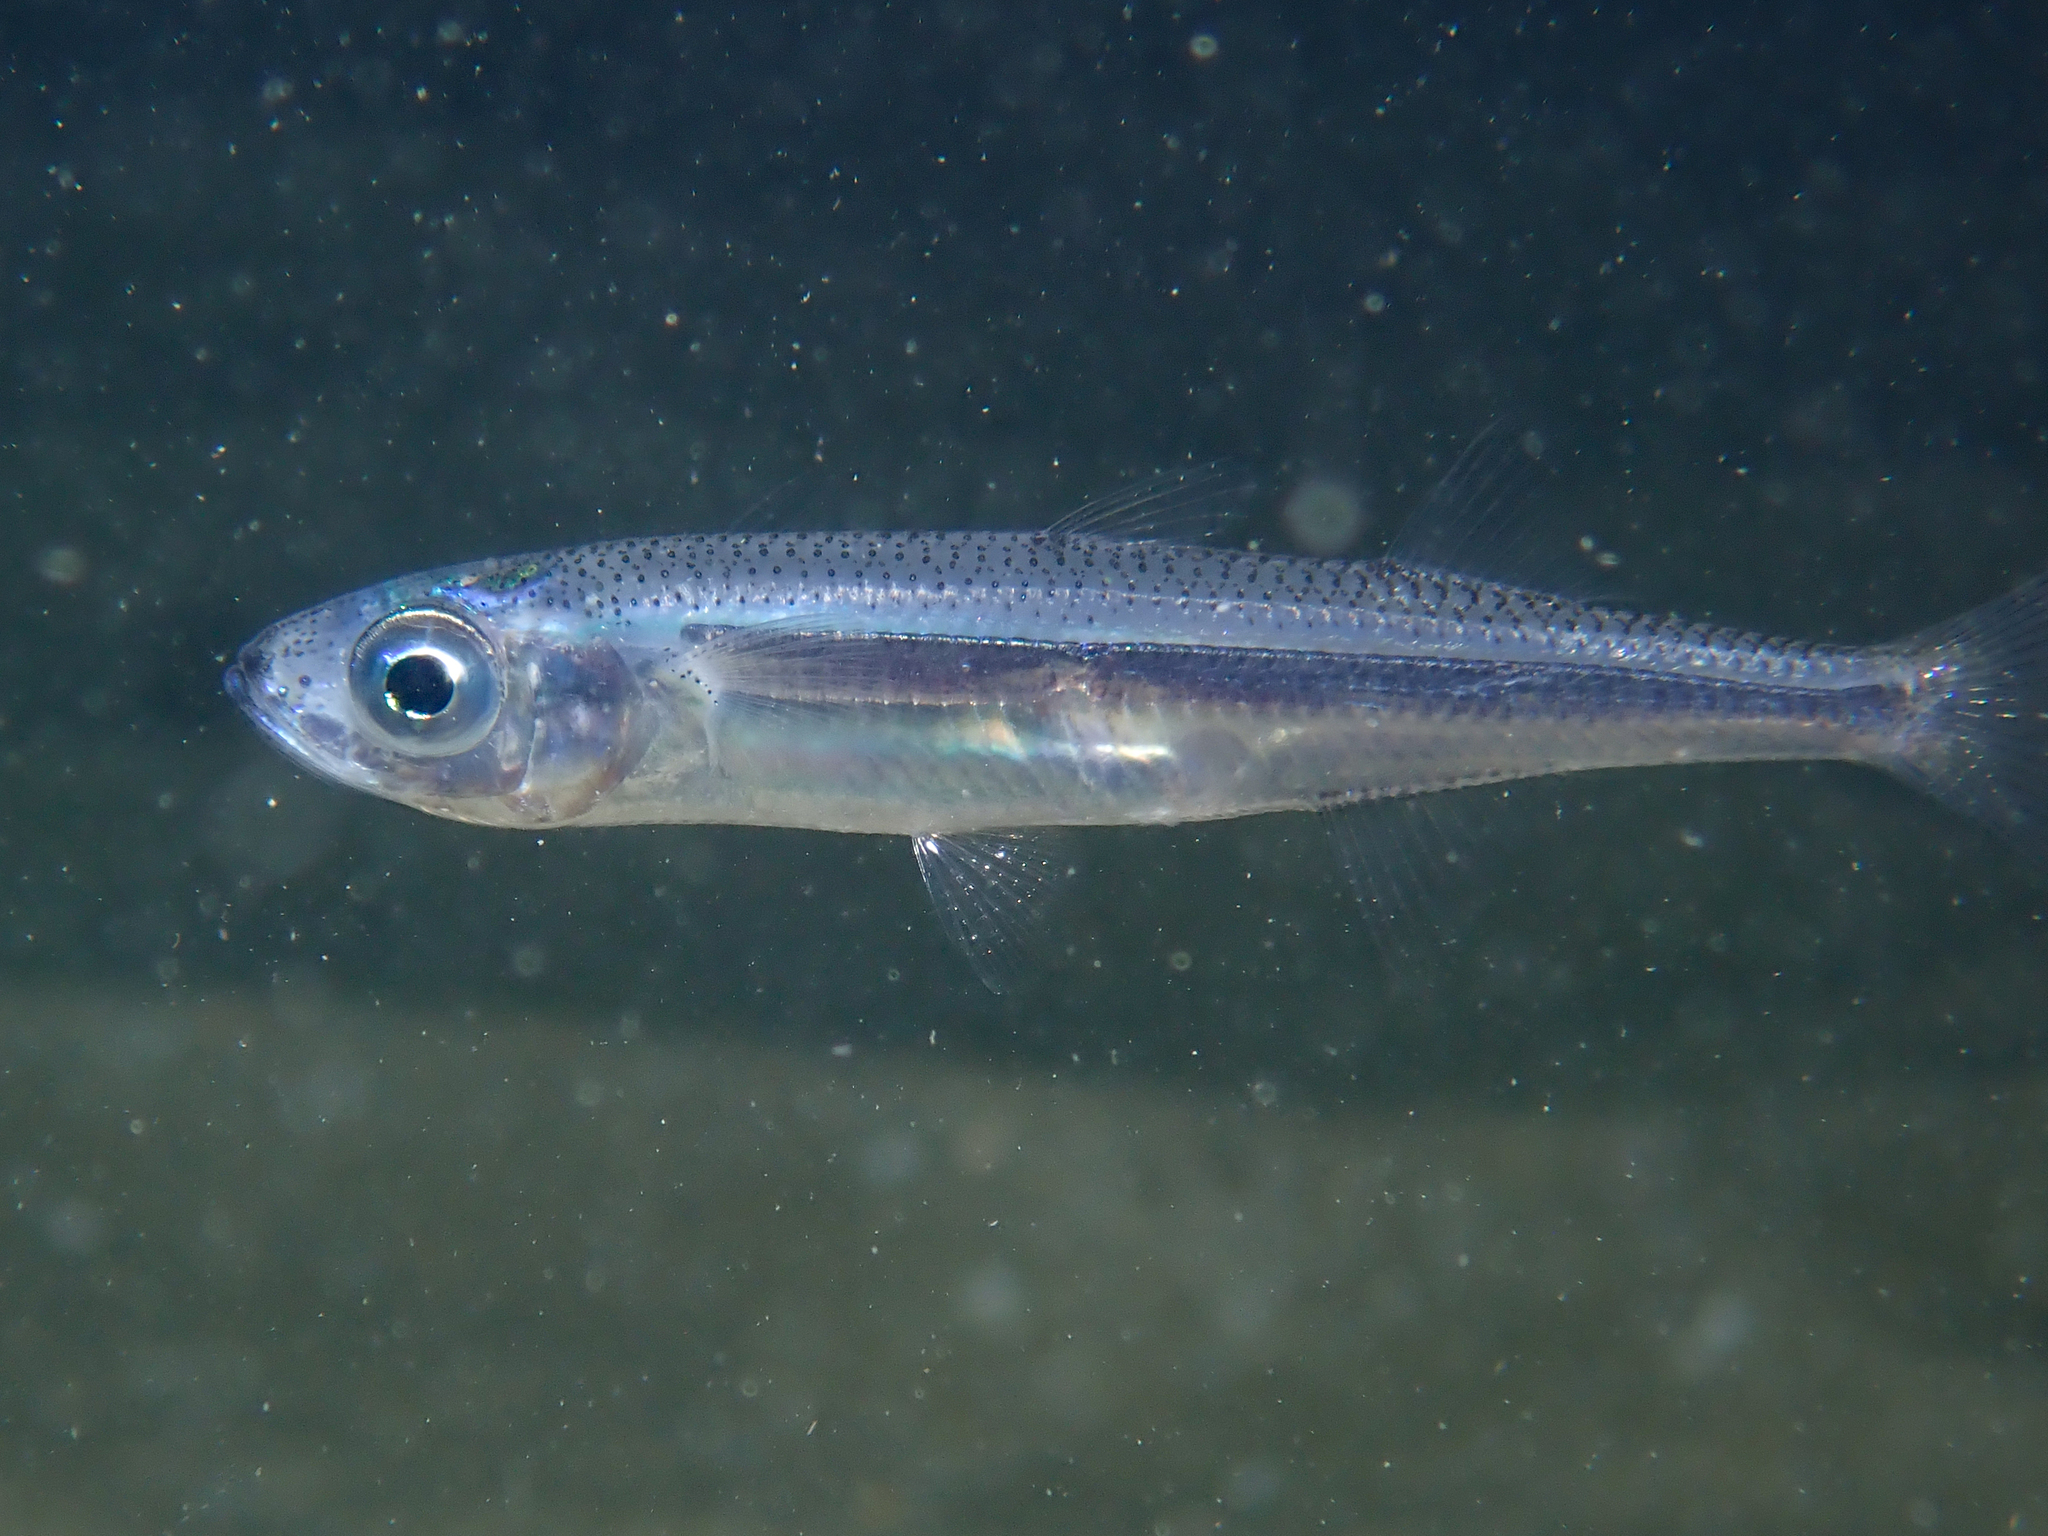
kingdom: Animalia
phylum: Chordata
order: Atheriniformes
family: Atherinidae
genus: Atherina
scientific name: Atherina hepsetus
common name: Mediterranean sand smelt
